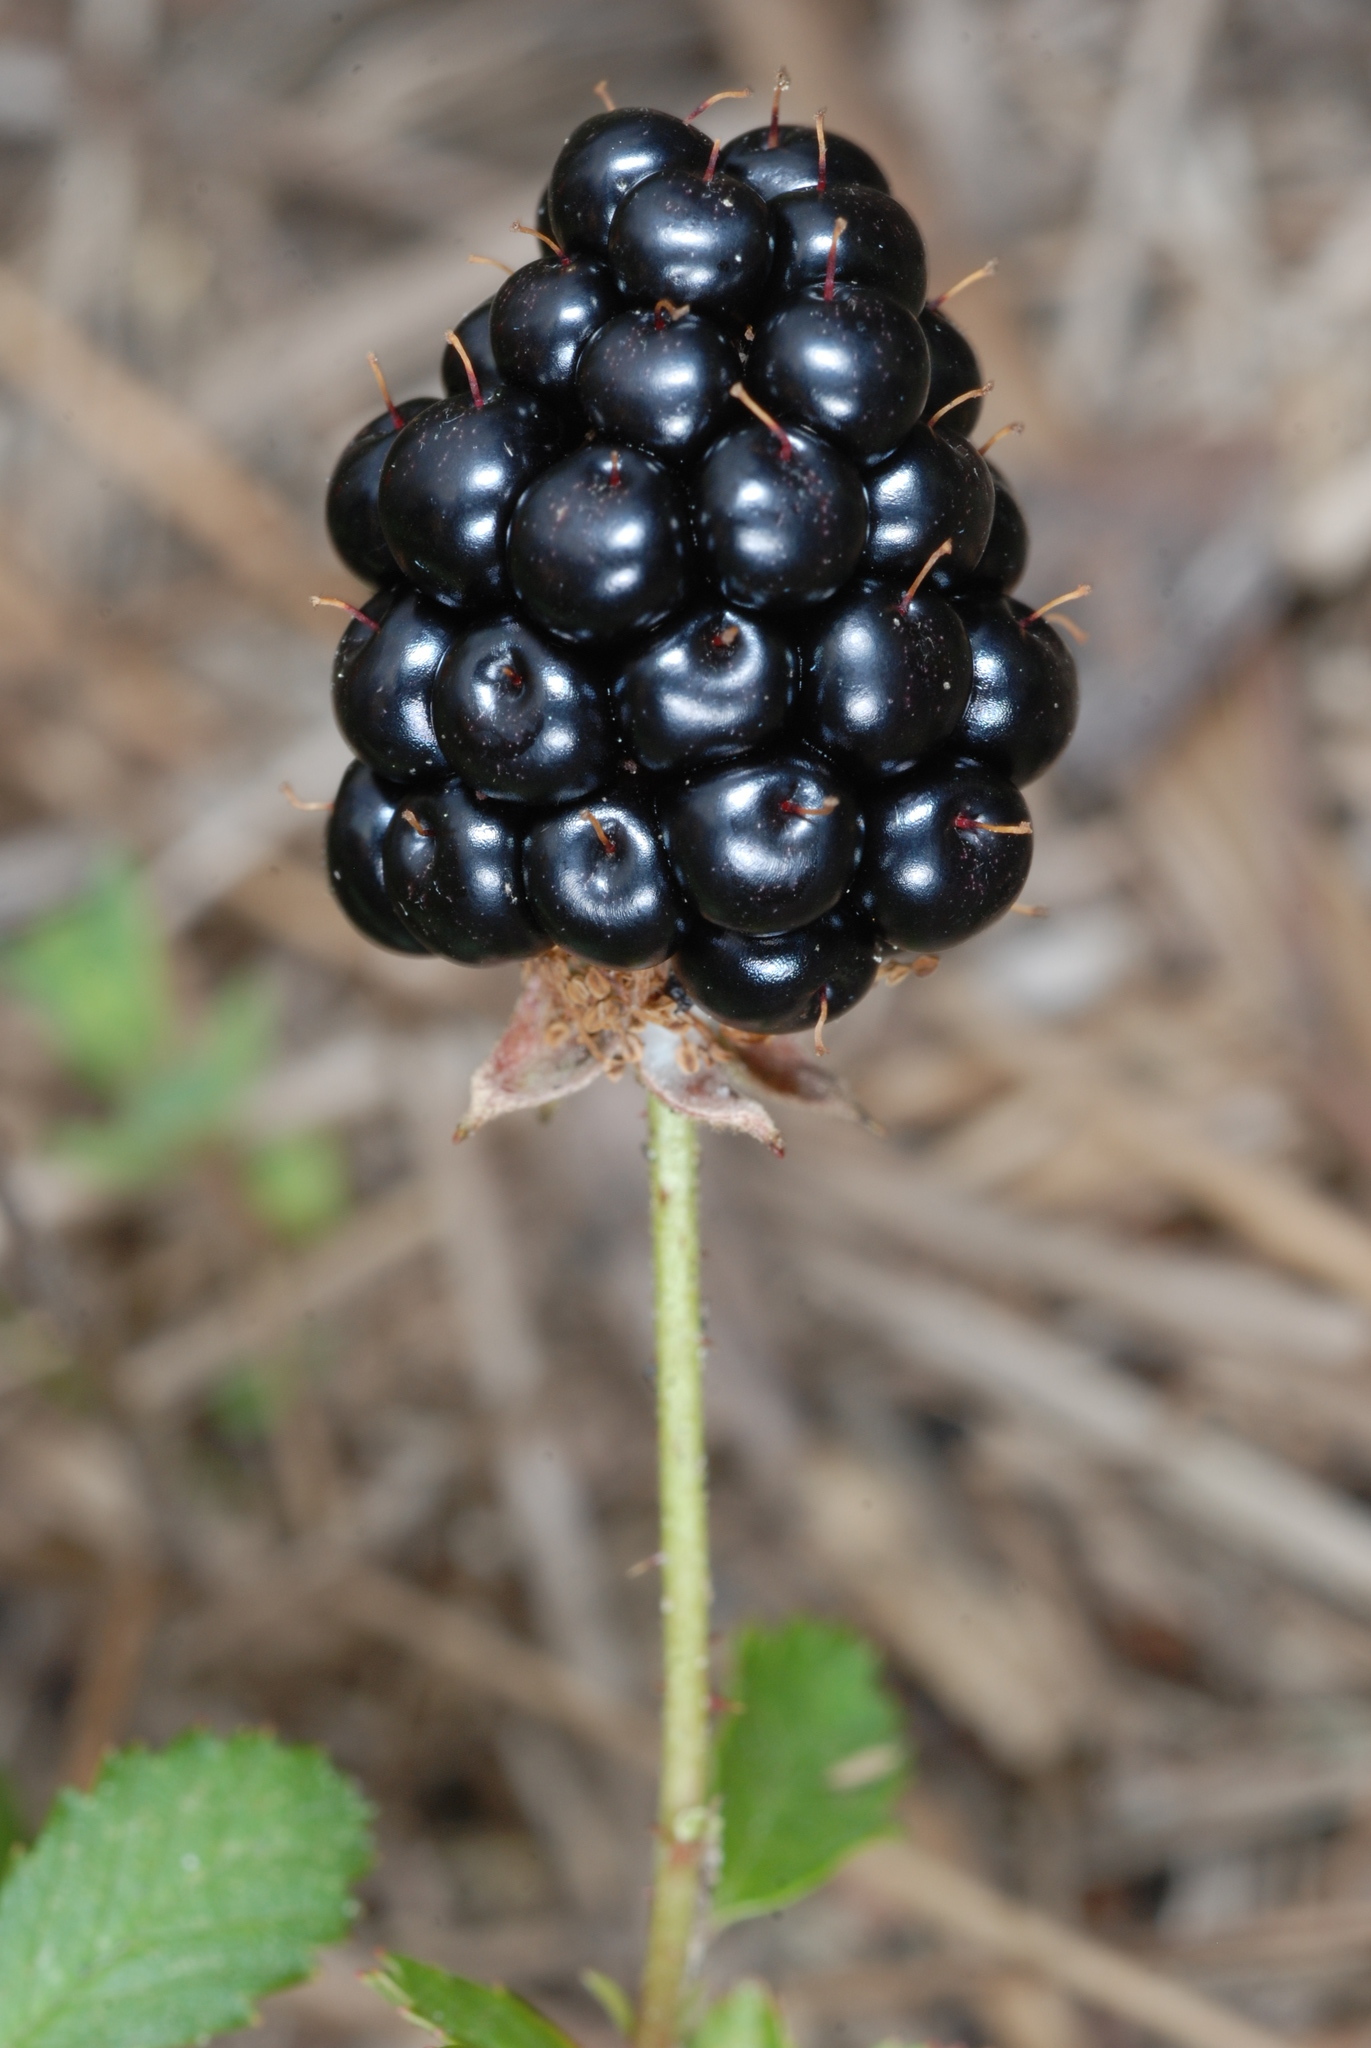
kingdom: Plantae
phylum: Tracheophyta
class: Magnoliopsida
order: Rosales
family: Rosaceae
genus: Rubus
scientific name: Rubus trivialis
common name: Southern dewberry
